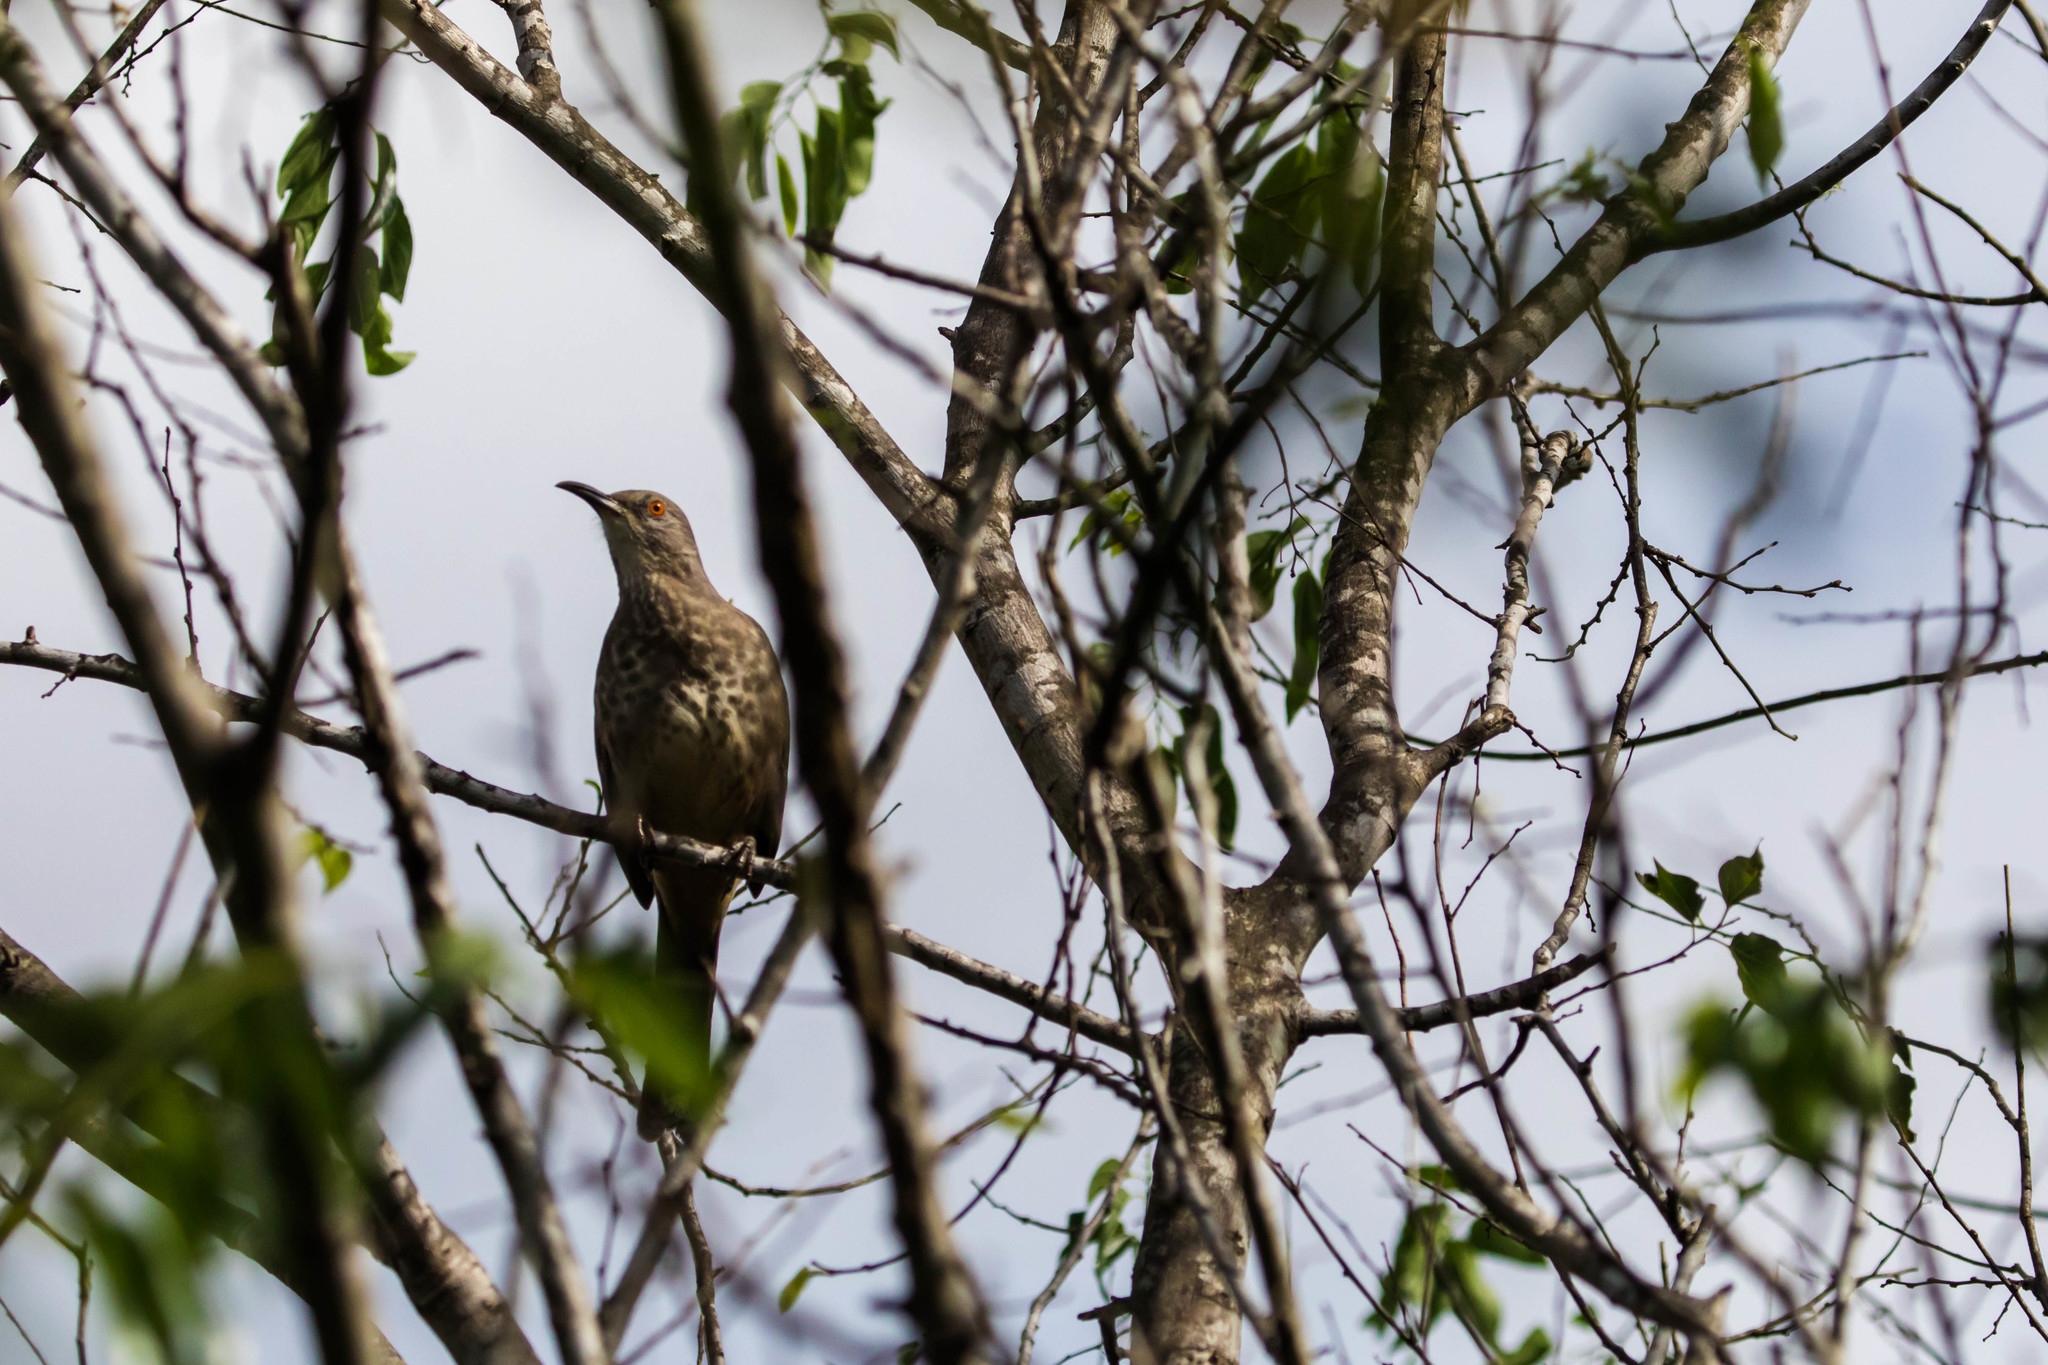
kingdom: Animalia
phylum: Chordata
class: Aves
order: Passeriformes
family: Mimidae
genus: Toxostoma
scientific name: Toxostoma curvirostre
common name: Curve-billed thrasher
